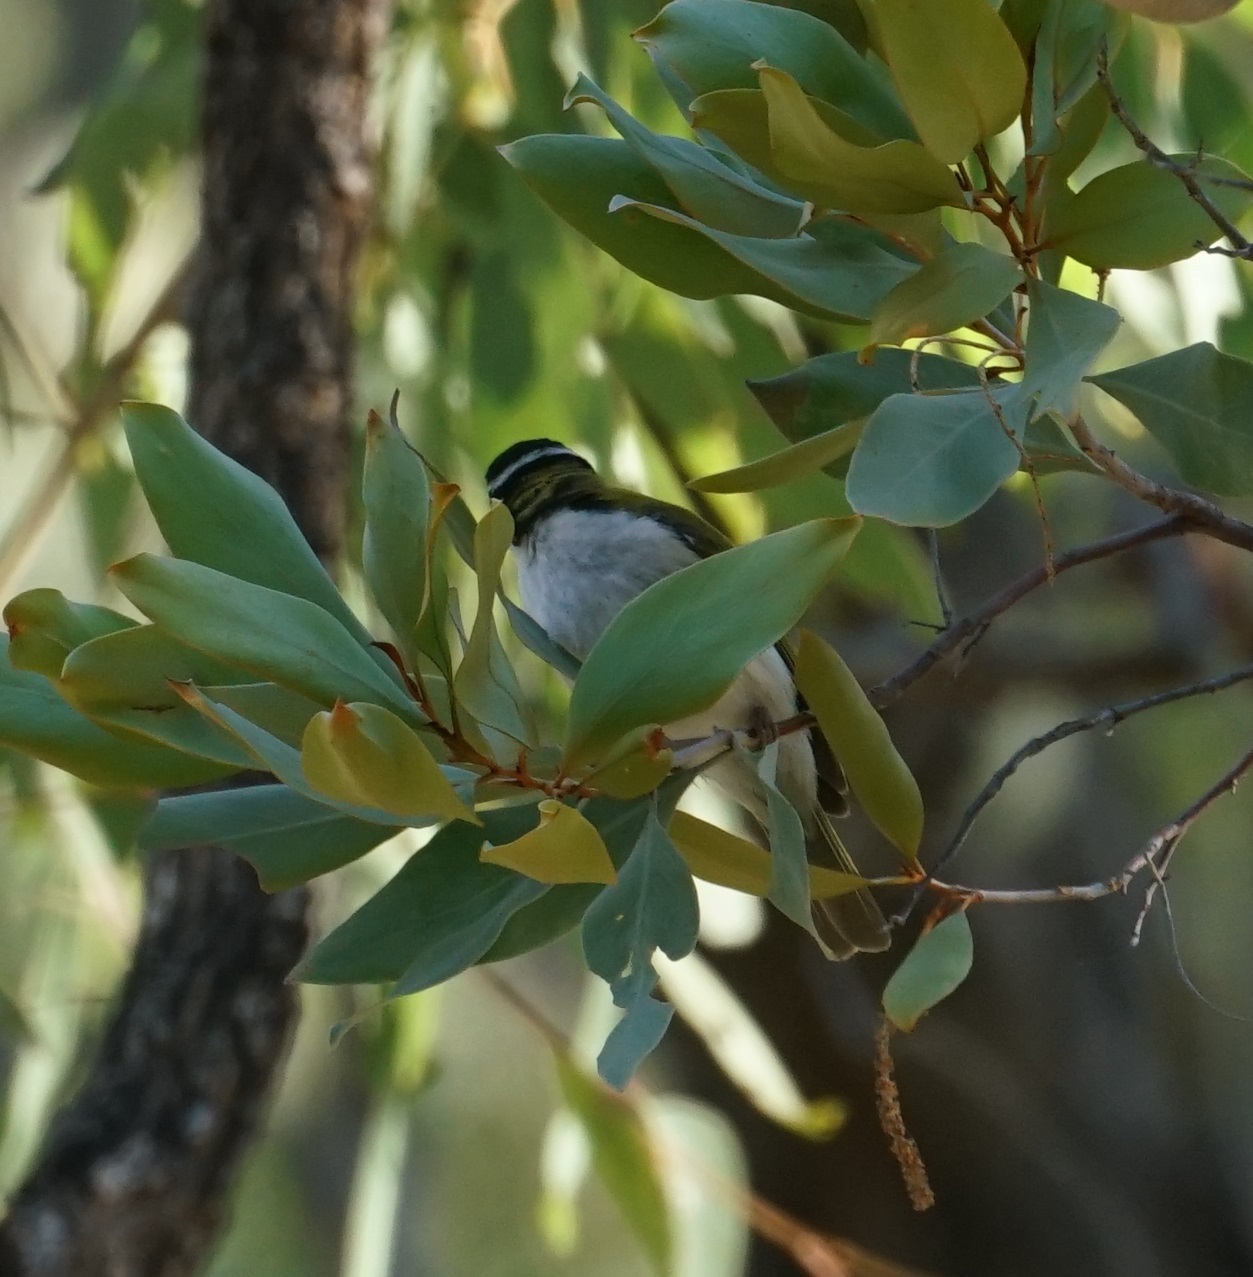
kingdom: Animalia
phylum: Chordata
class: Aves
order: Passeriformes
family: Meliphagidae
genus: Melithreptus
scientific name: Melithreptus albogularis
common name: White-throated honeyeater
